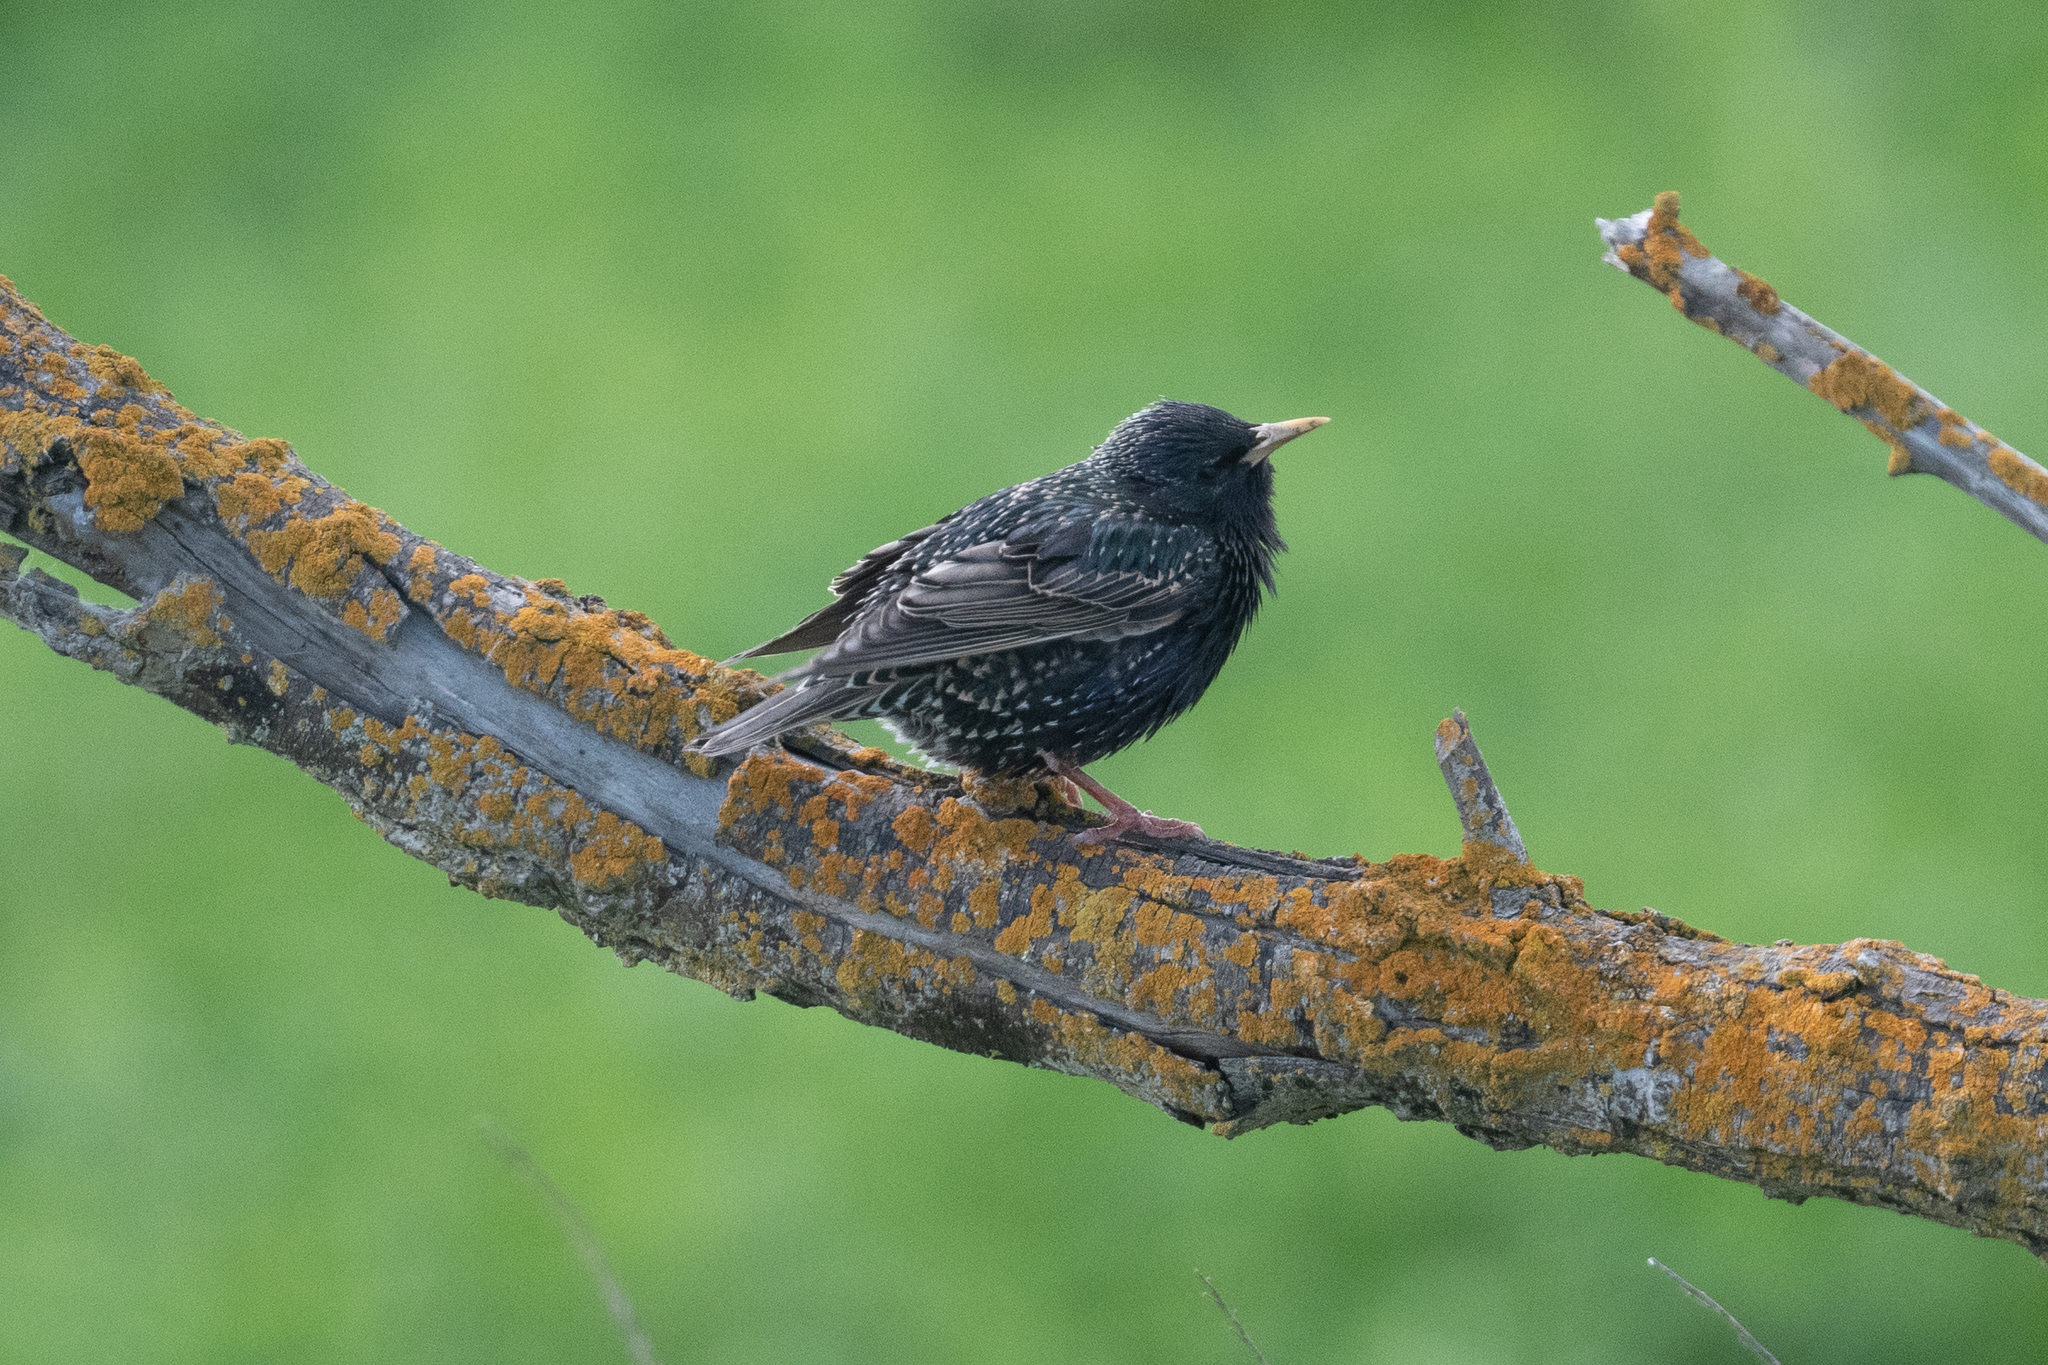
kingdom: Animalia
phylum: Chordata
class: Aves
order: Passeriformes
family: Sturnidae
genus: Sturnus
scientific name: Sturnus vulgaris
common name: Common starling
